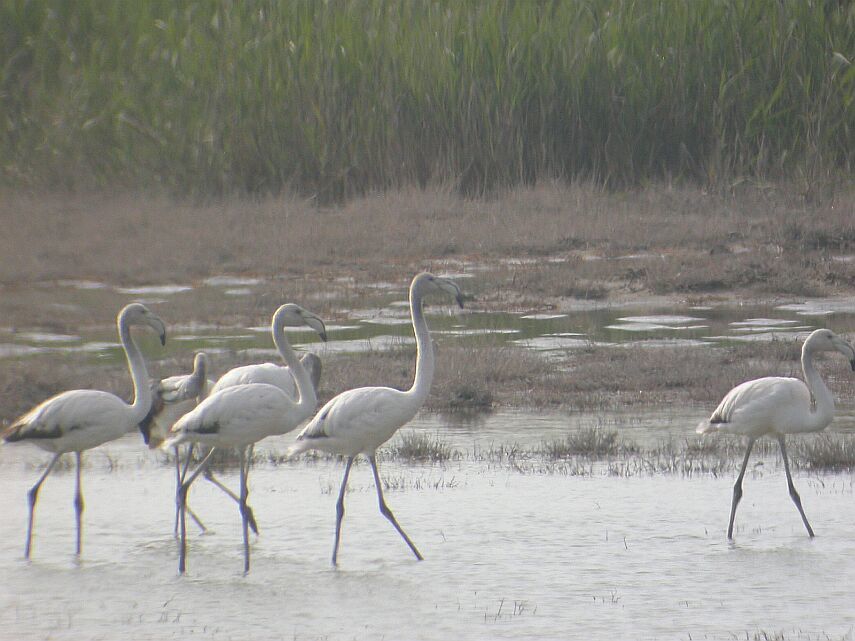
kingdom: Animalia
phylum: Chordata
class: Aves
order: Phoenicopteriformes
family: Phoenicopteridae
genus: Phoenicopterus
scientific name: Phoenicopterus roseus
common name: Greater flamingo
